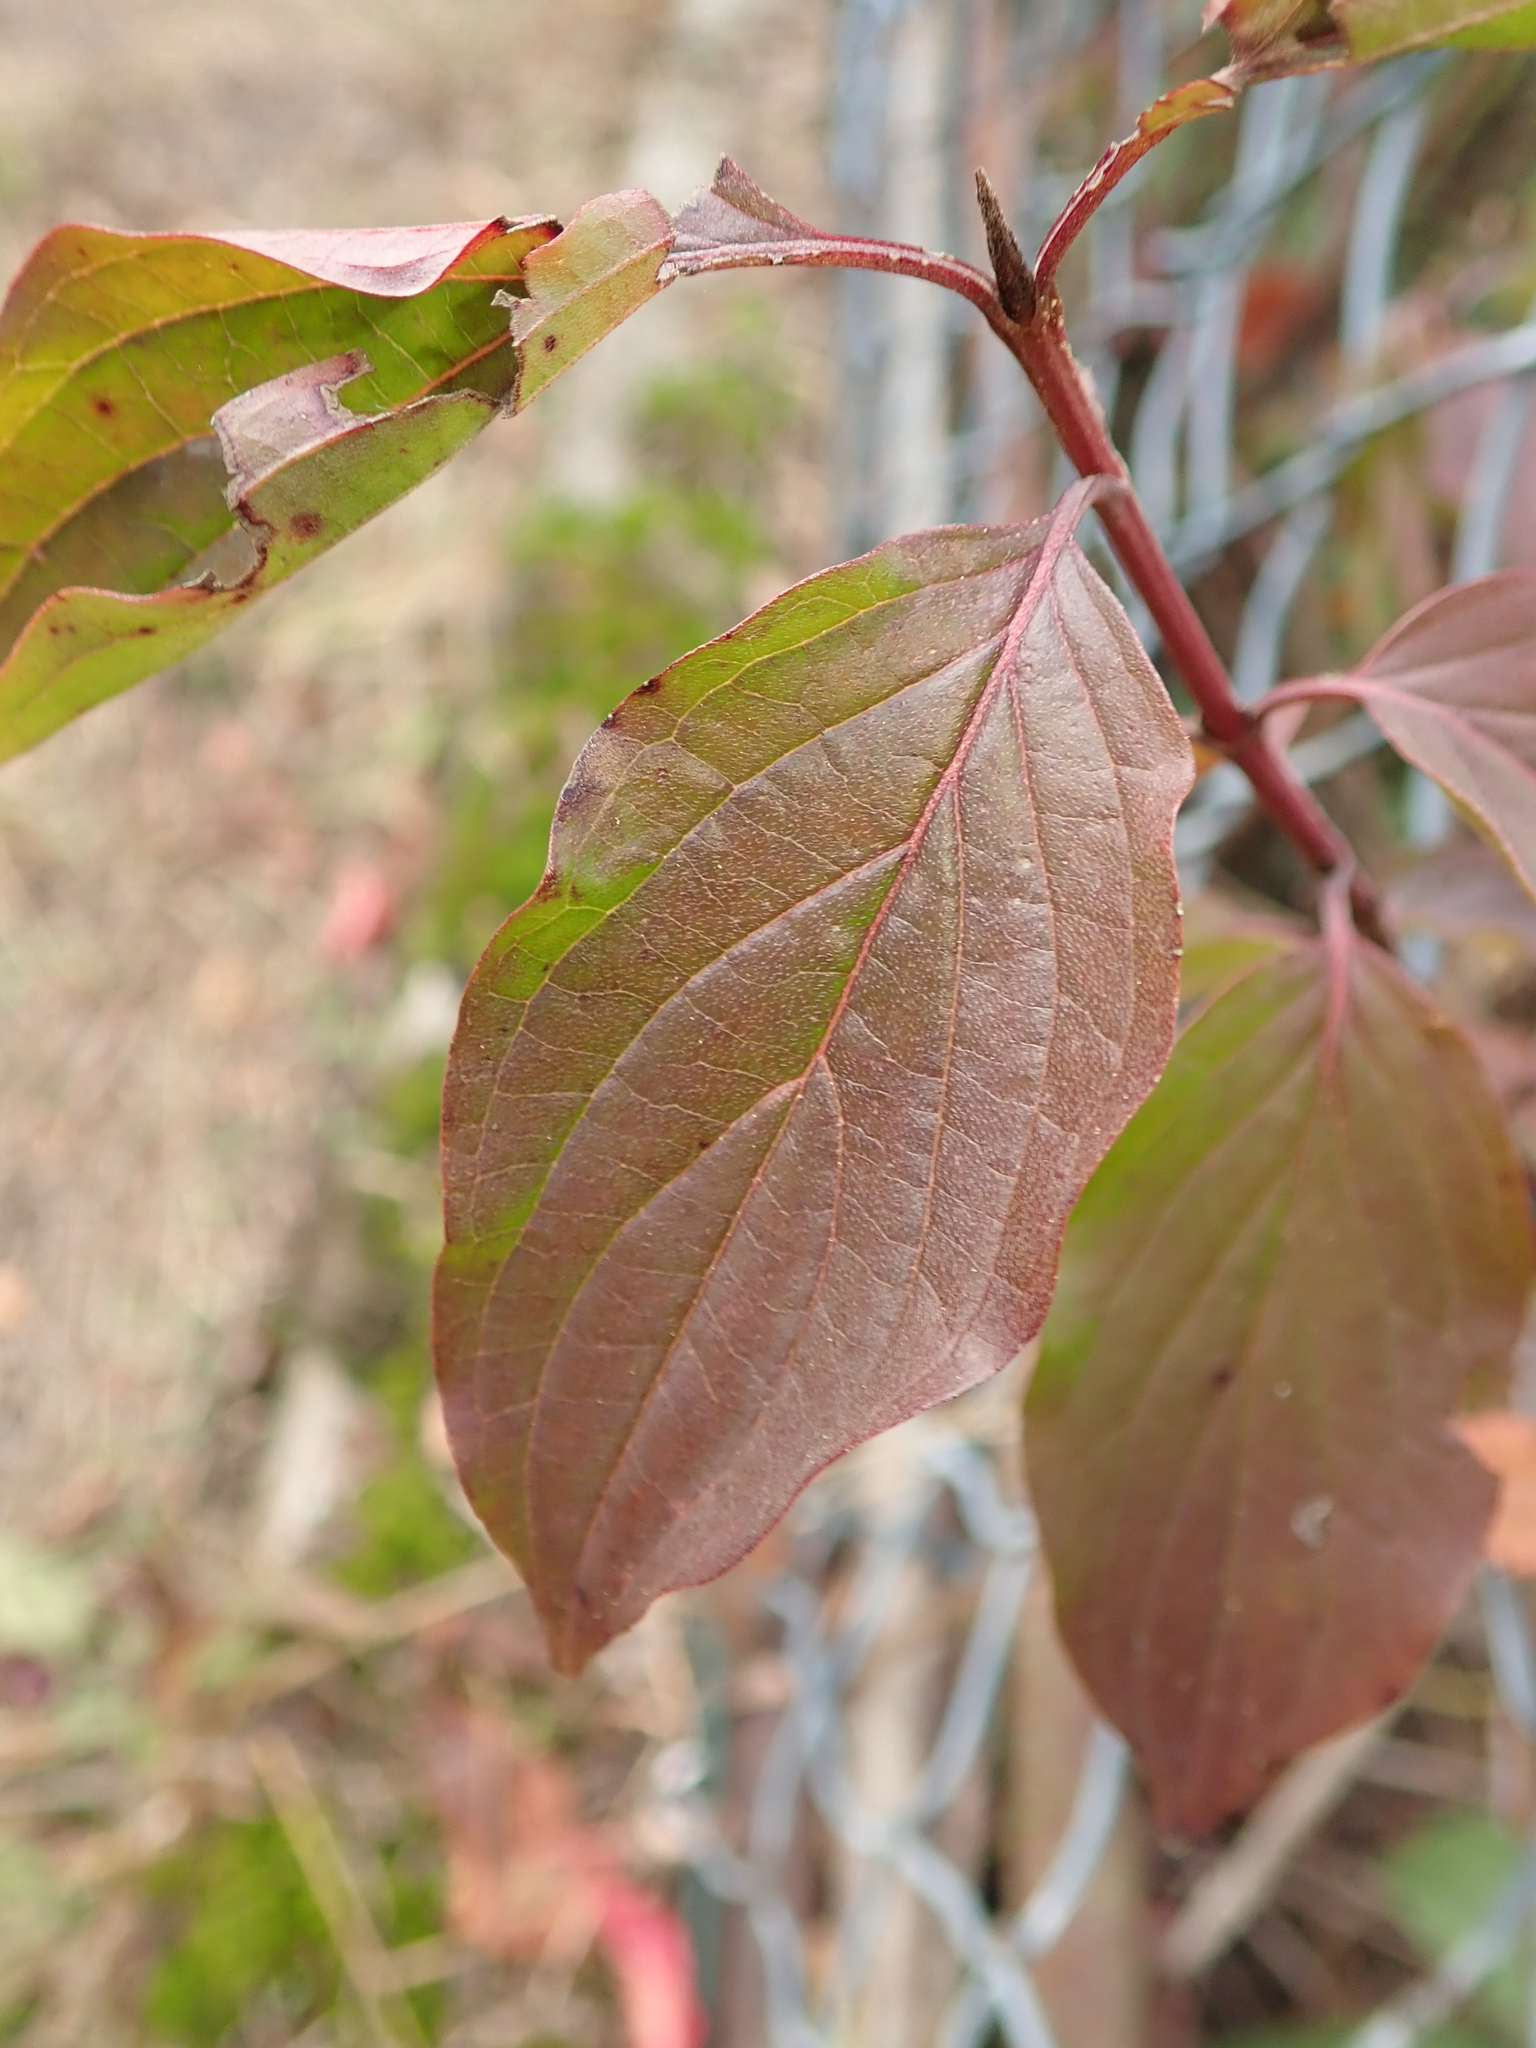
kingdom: Plantae
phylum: Tracheophyta
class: Magnoliopsida
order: Cornales
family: Cornaceae
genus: Cornus
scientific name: Cornus sanguinea
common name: Dogwood
